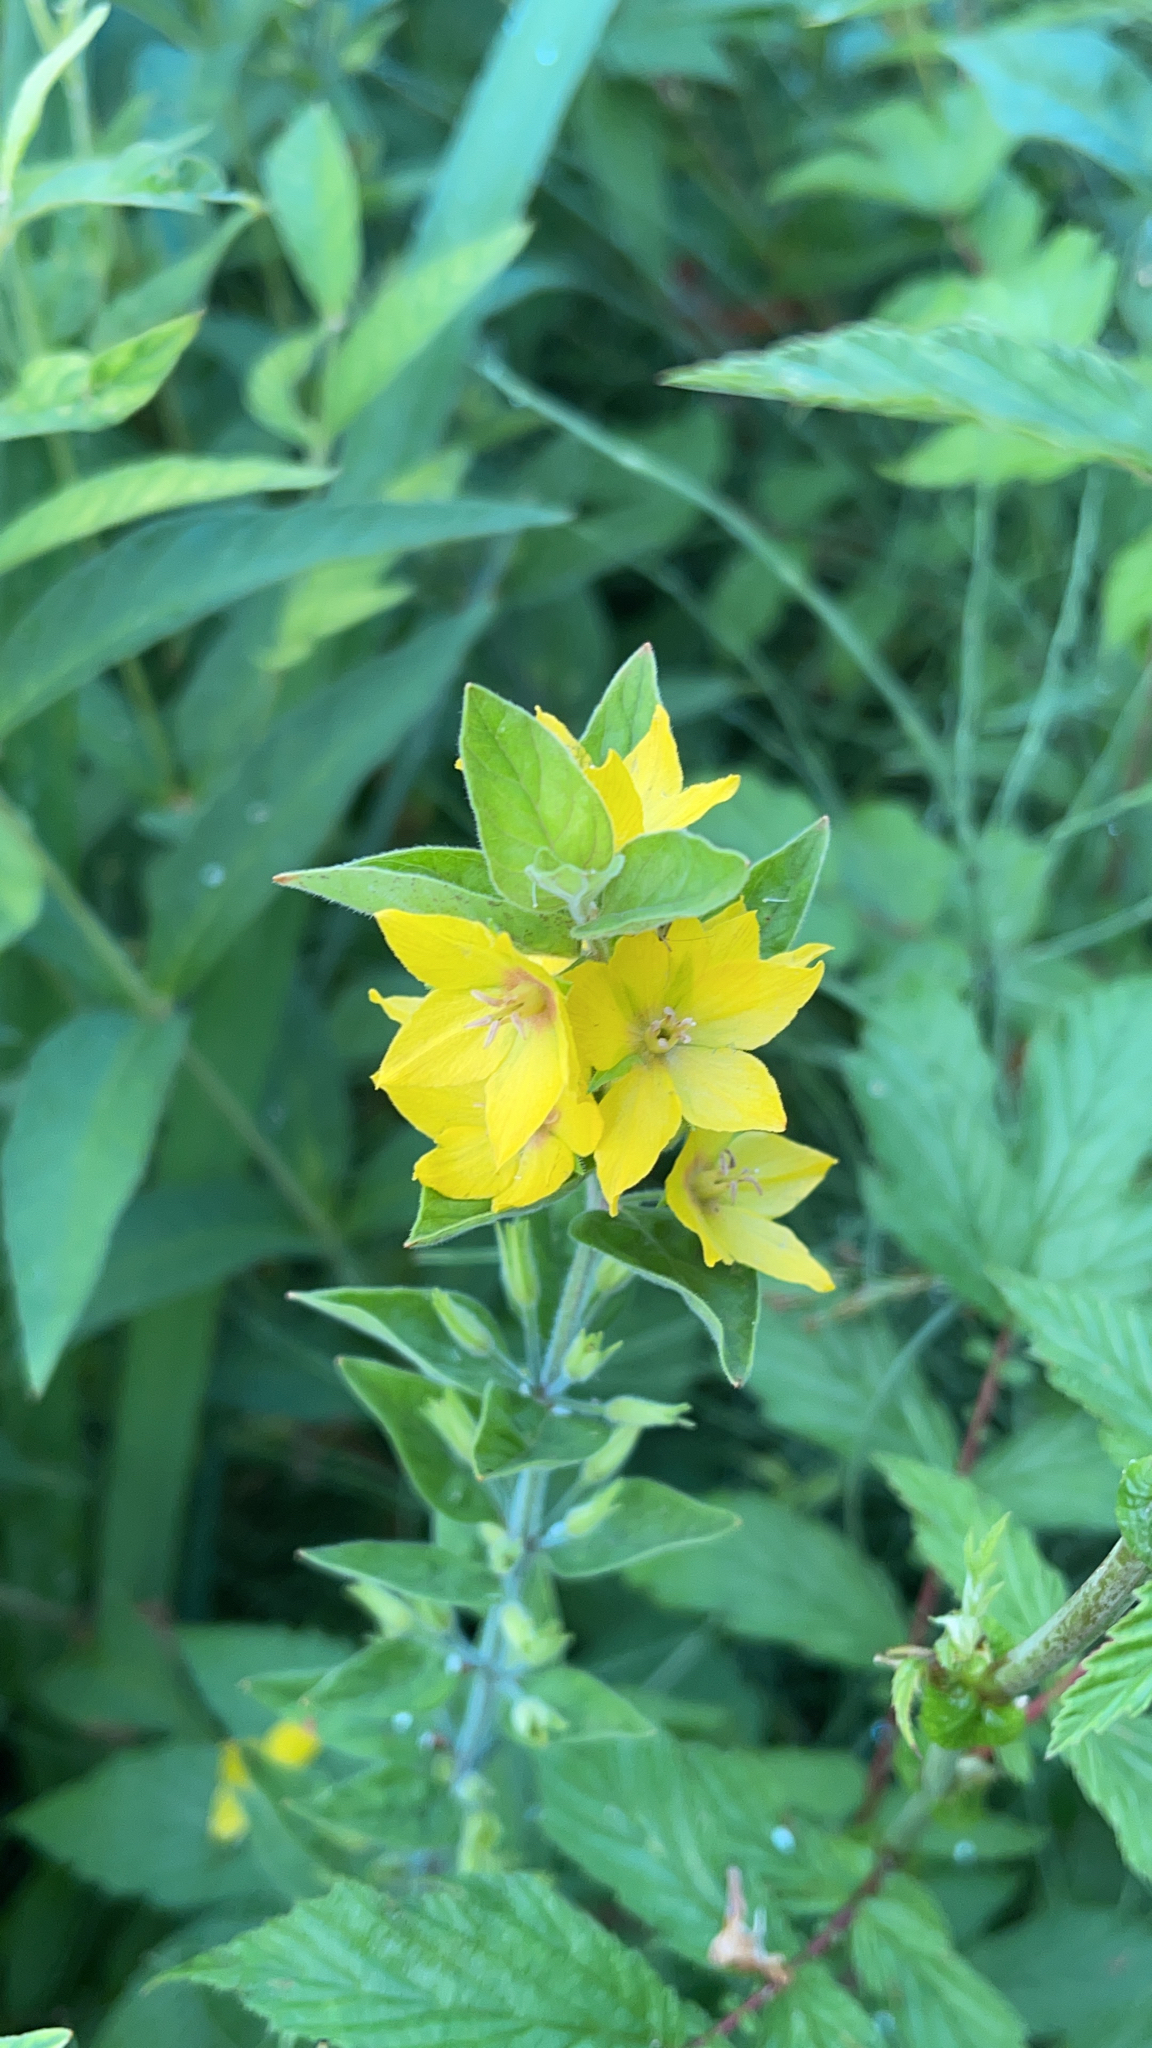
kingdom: Plantae
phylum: Tracheophyta
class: Magnoliopsida
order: Ericales
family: Primulaceae
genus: Lysimachia
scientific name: Lysimachia punctata
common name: Dotted loosestrife
